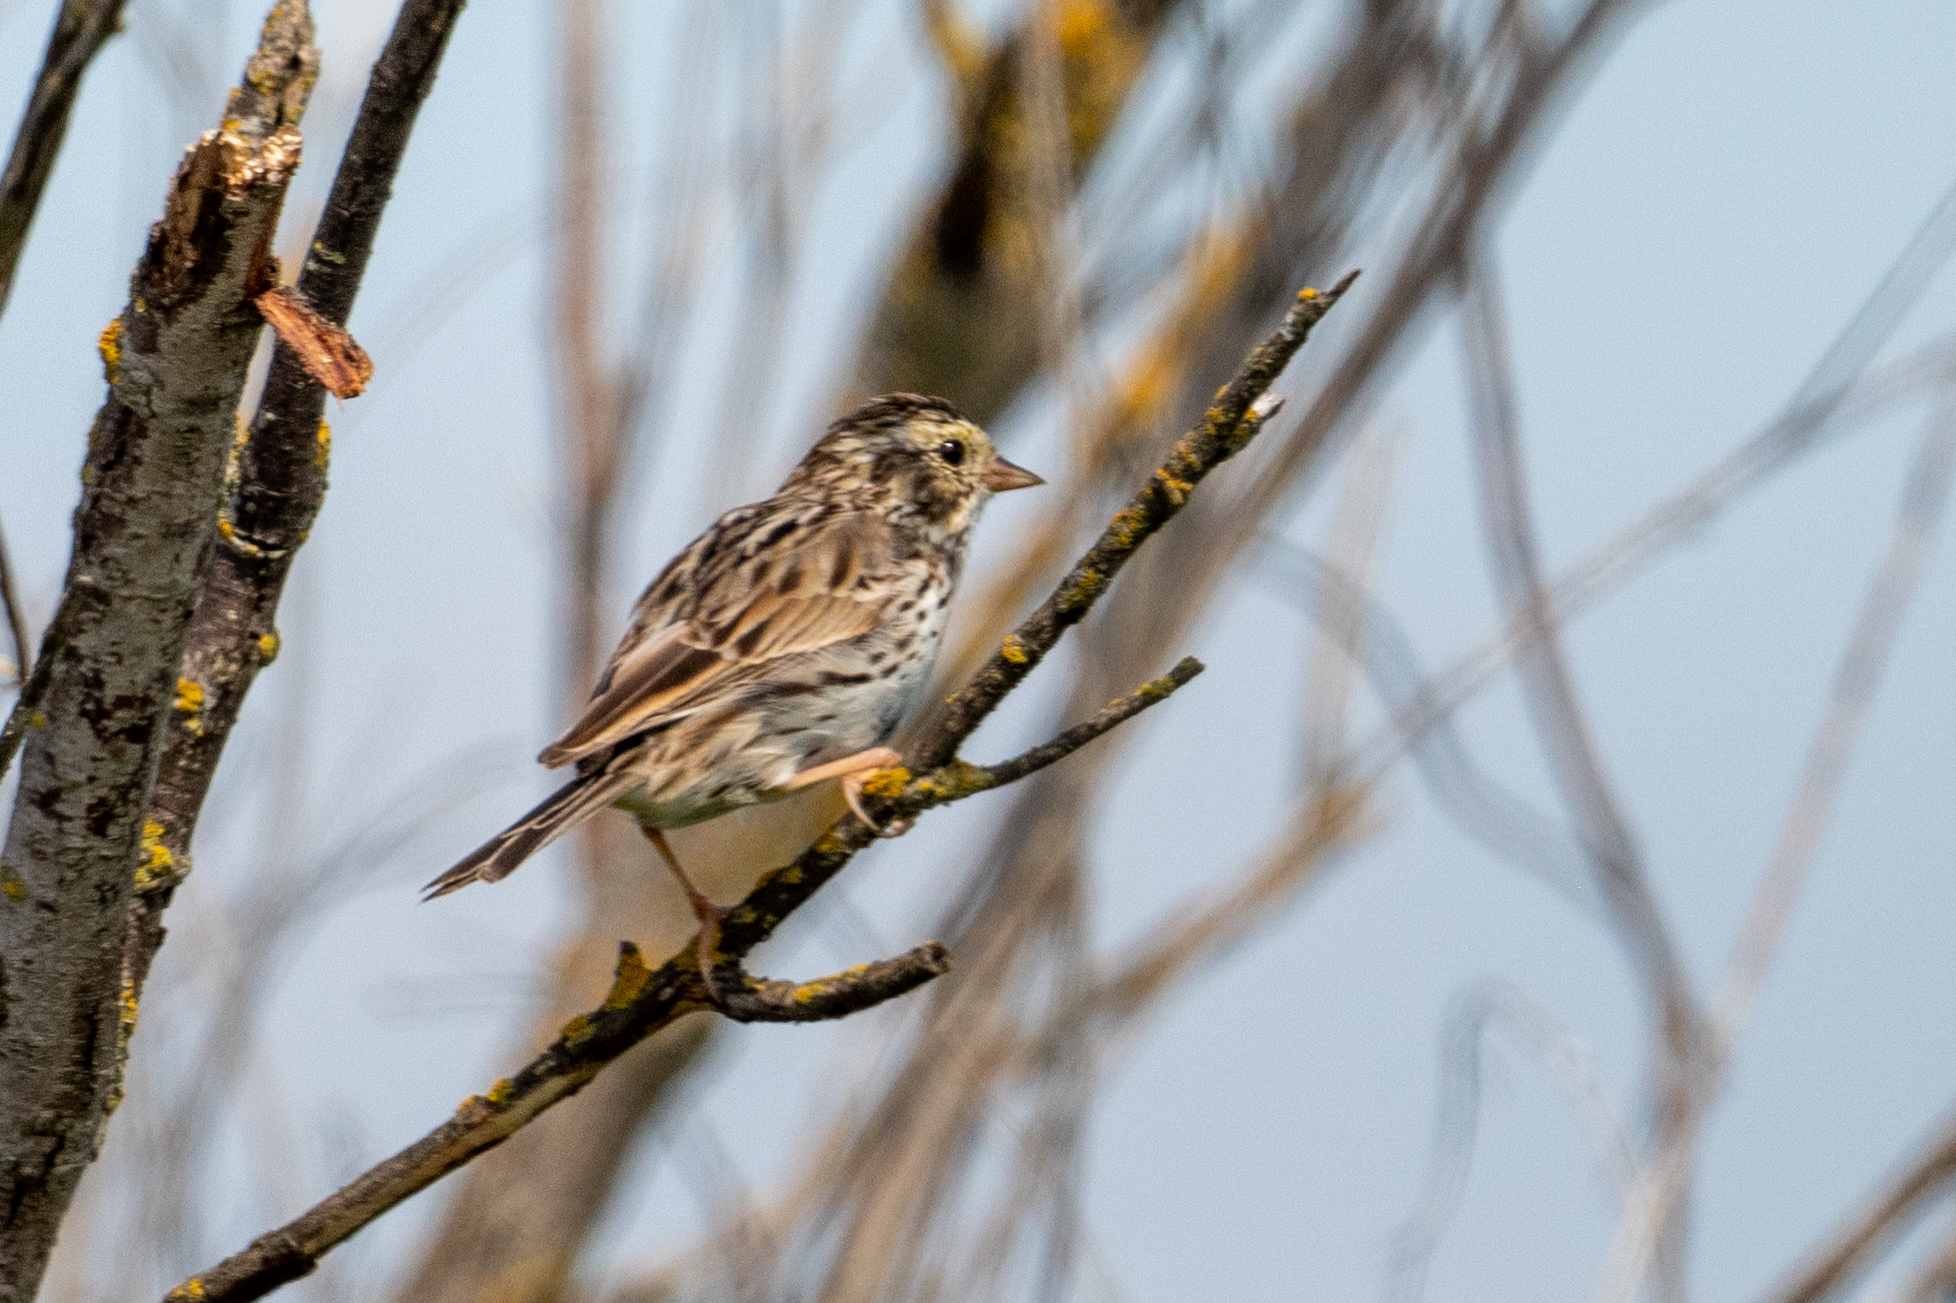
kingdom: Animalia
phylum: Chordata
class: Aves
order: Passeriformes
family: Passerellidae
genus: Passerculus
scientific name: Passerculus sandwichensis
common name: Savannah sparrow
